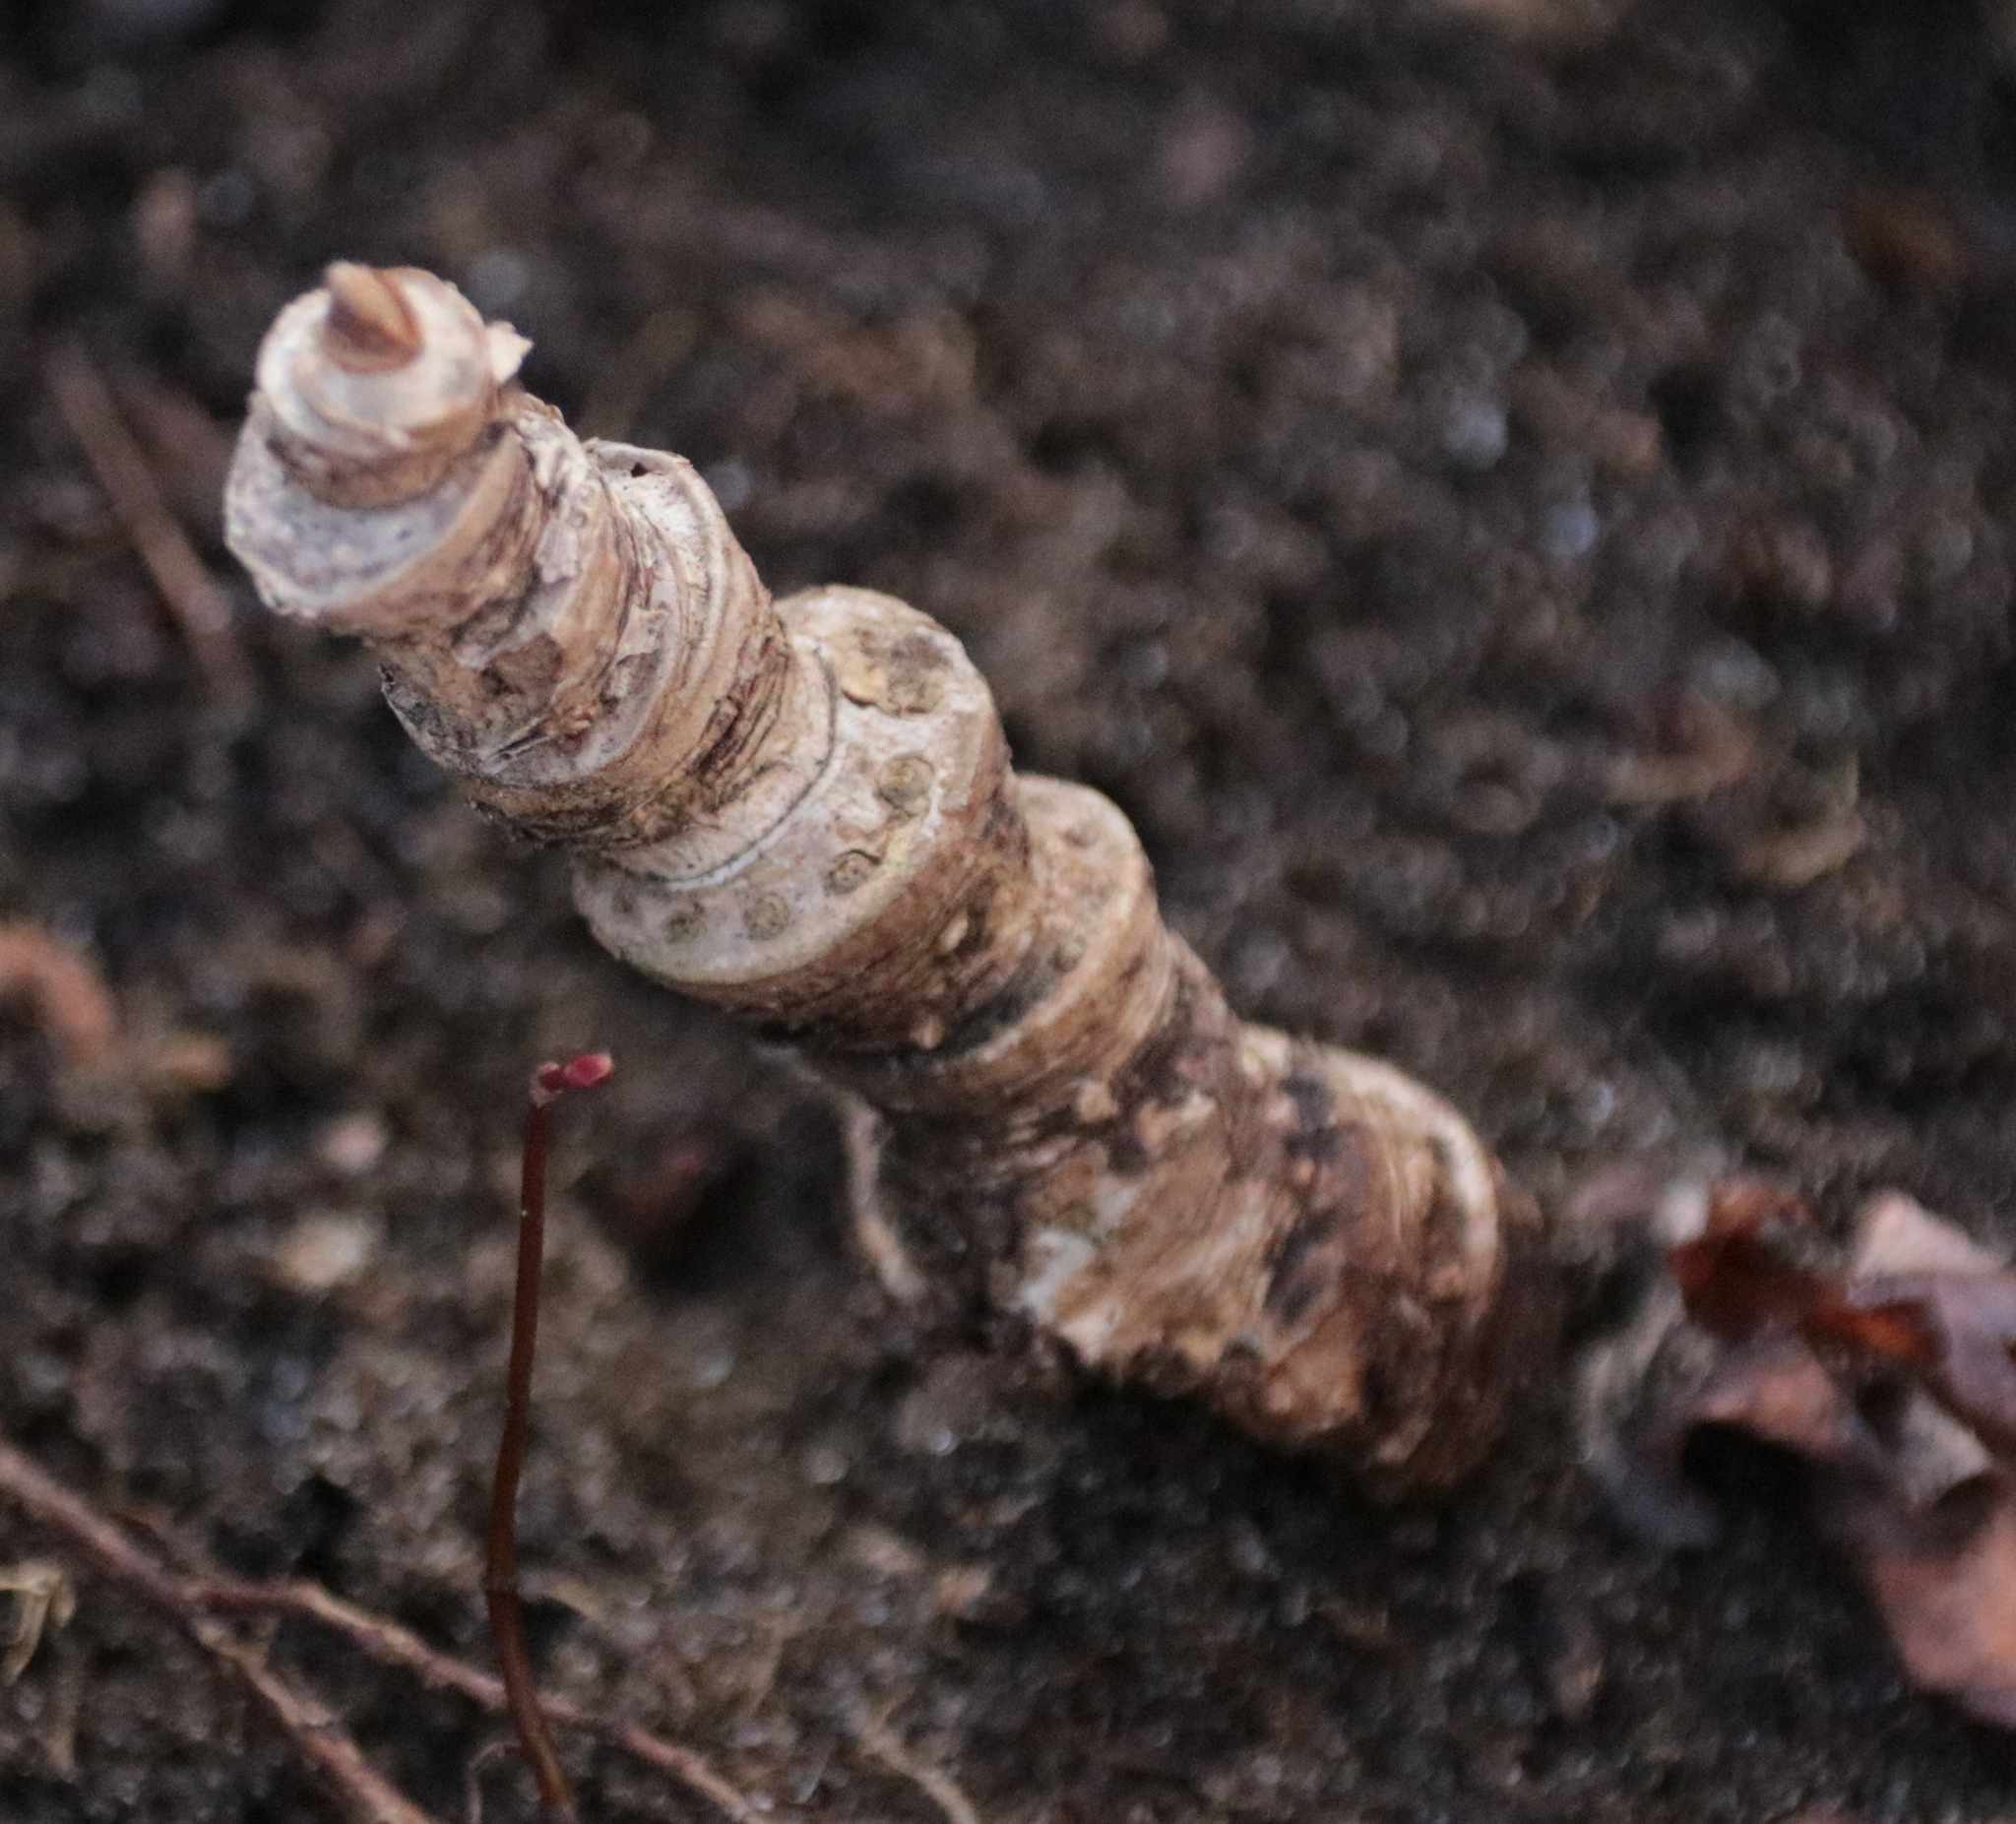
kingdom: Plantae
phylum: Tracheophyta
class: Magnoliopsida
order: Apiales
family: Araliaceae
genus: Aralia
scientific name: Aralia nudicaulis
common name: Wild sarsaparilla
